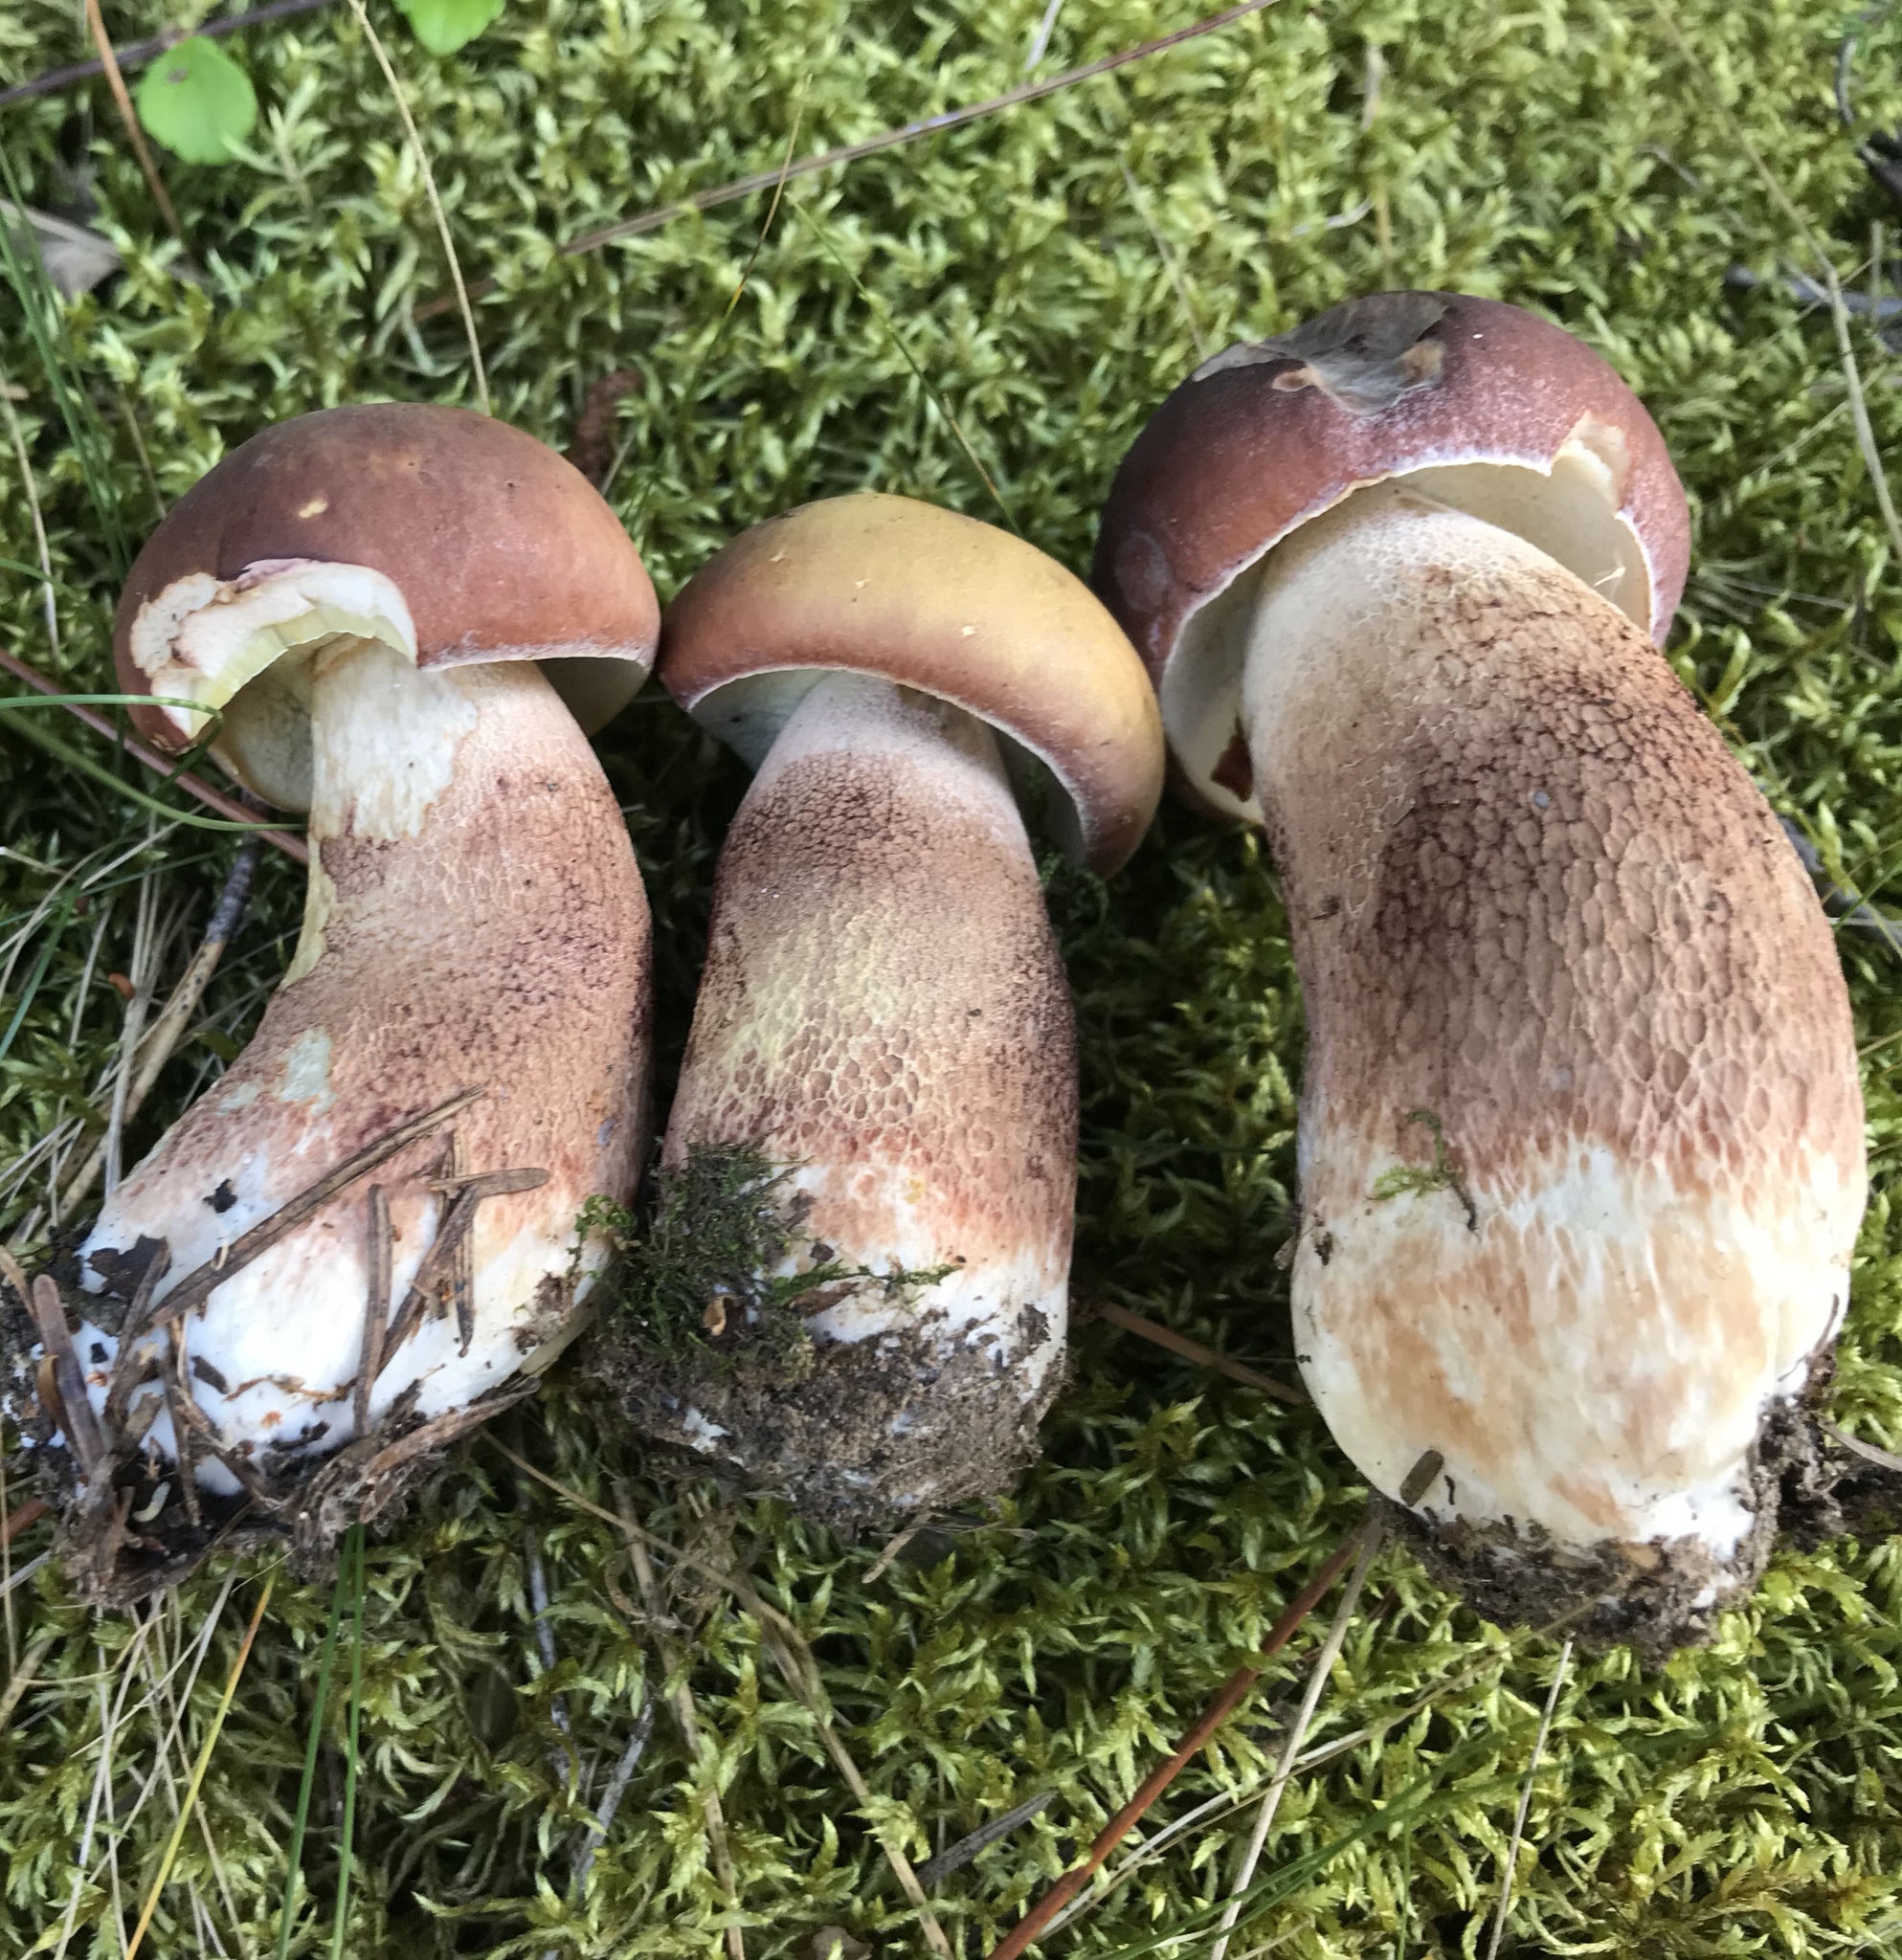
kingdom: Fungi
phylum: Basidiomycota
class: Agaricomycetes
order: Boletales
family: Boletaceae
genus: Boletus
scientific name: Boletus subcaerulescens
